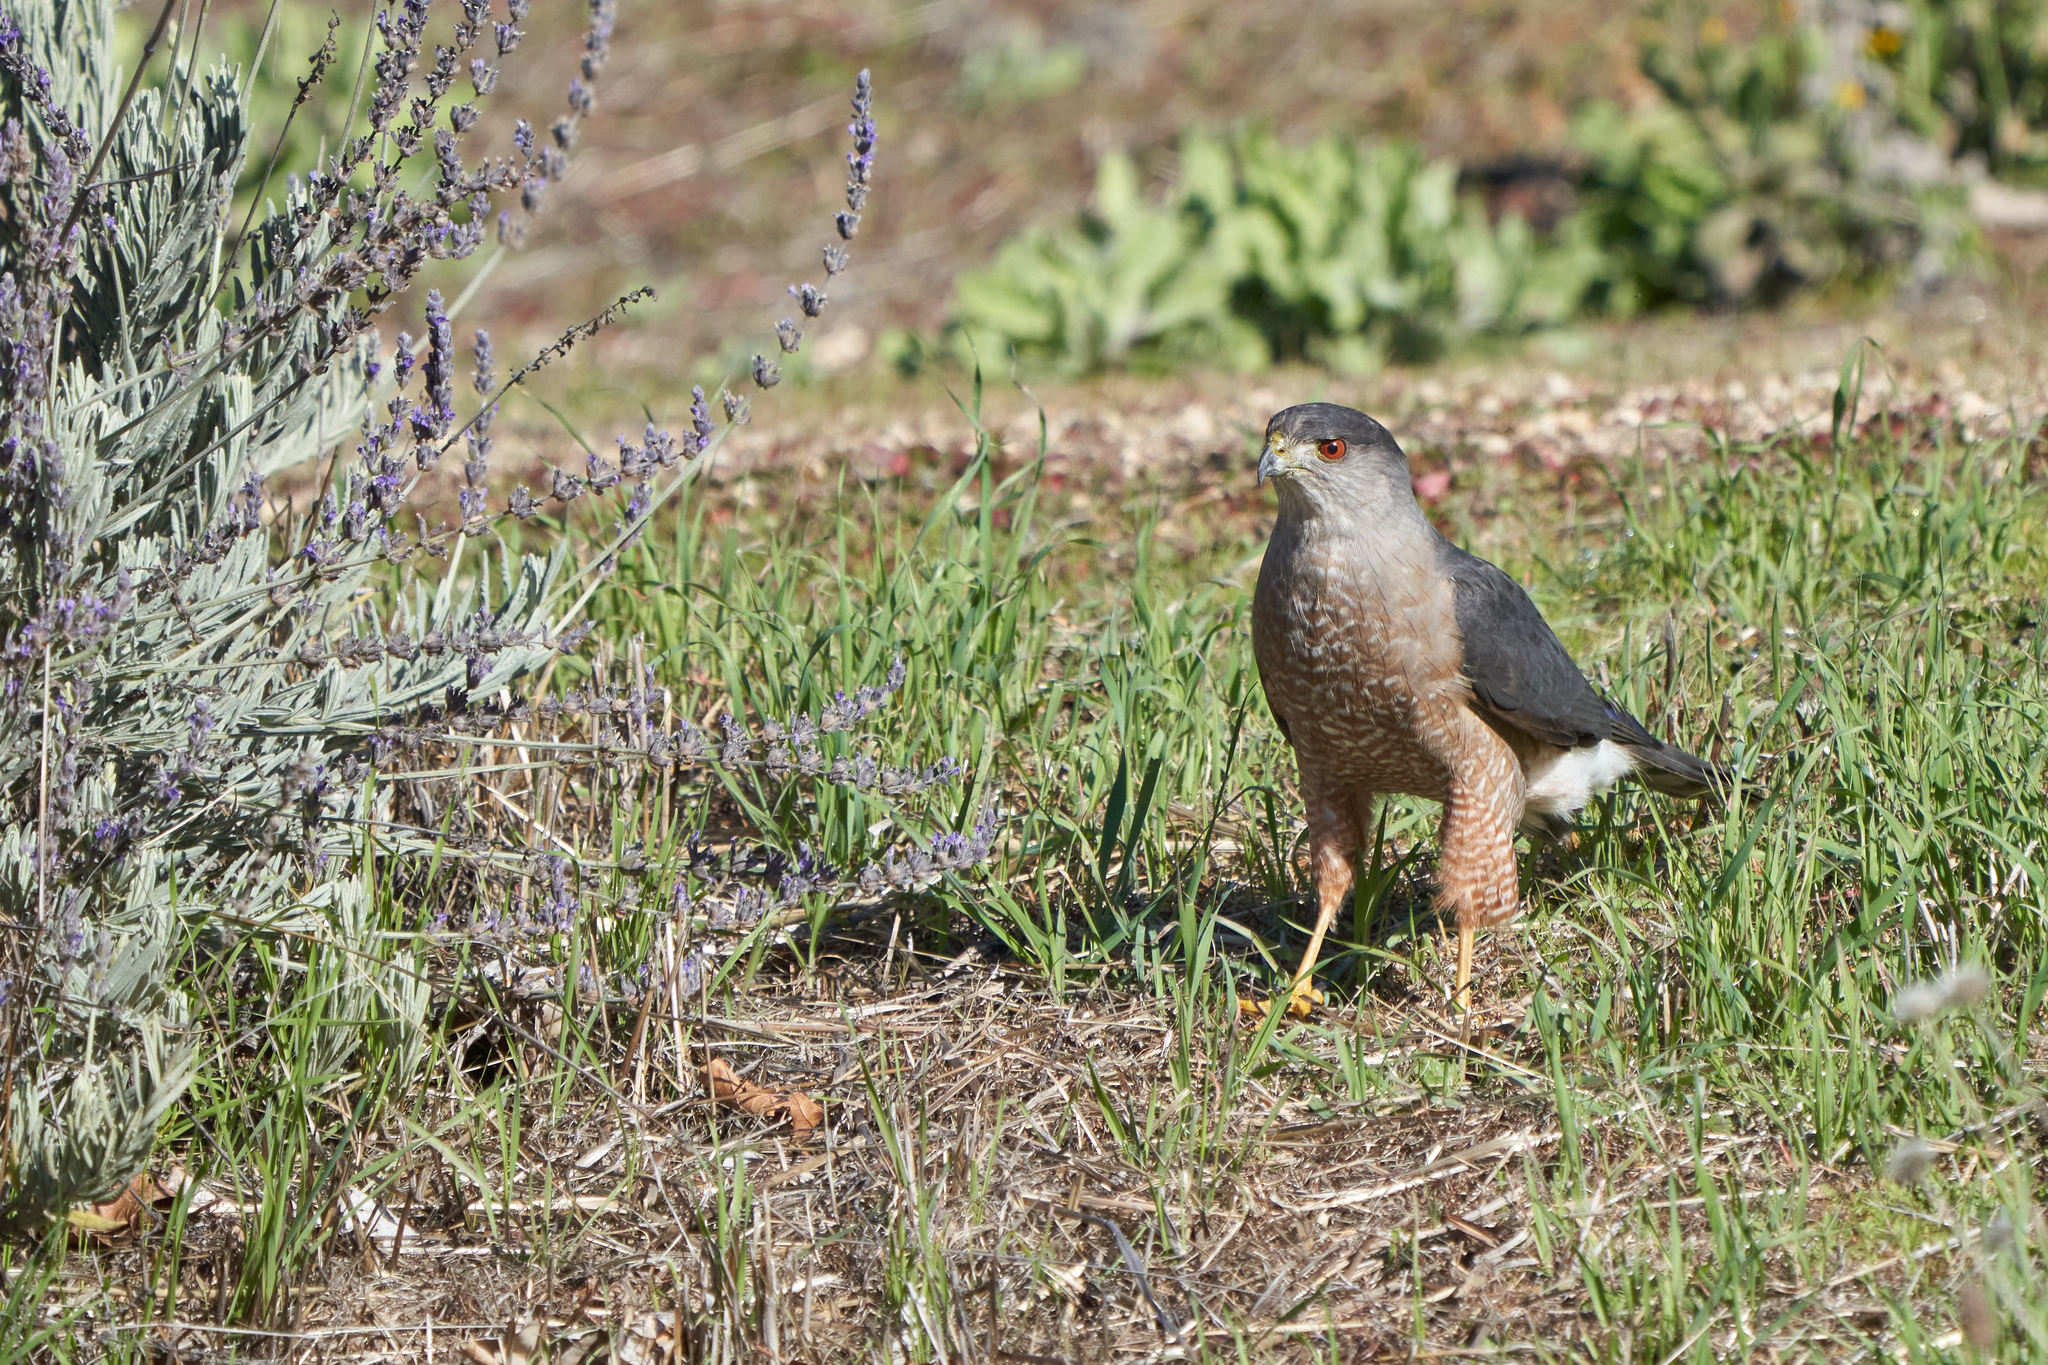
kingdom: Animalia
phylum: Chordata
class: Aves
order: Accipitriformes
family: Accipitridae
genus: Accipiter
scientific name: Accipiter cooperii
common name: Cooper's hawk
